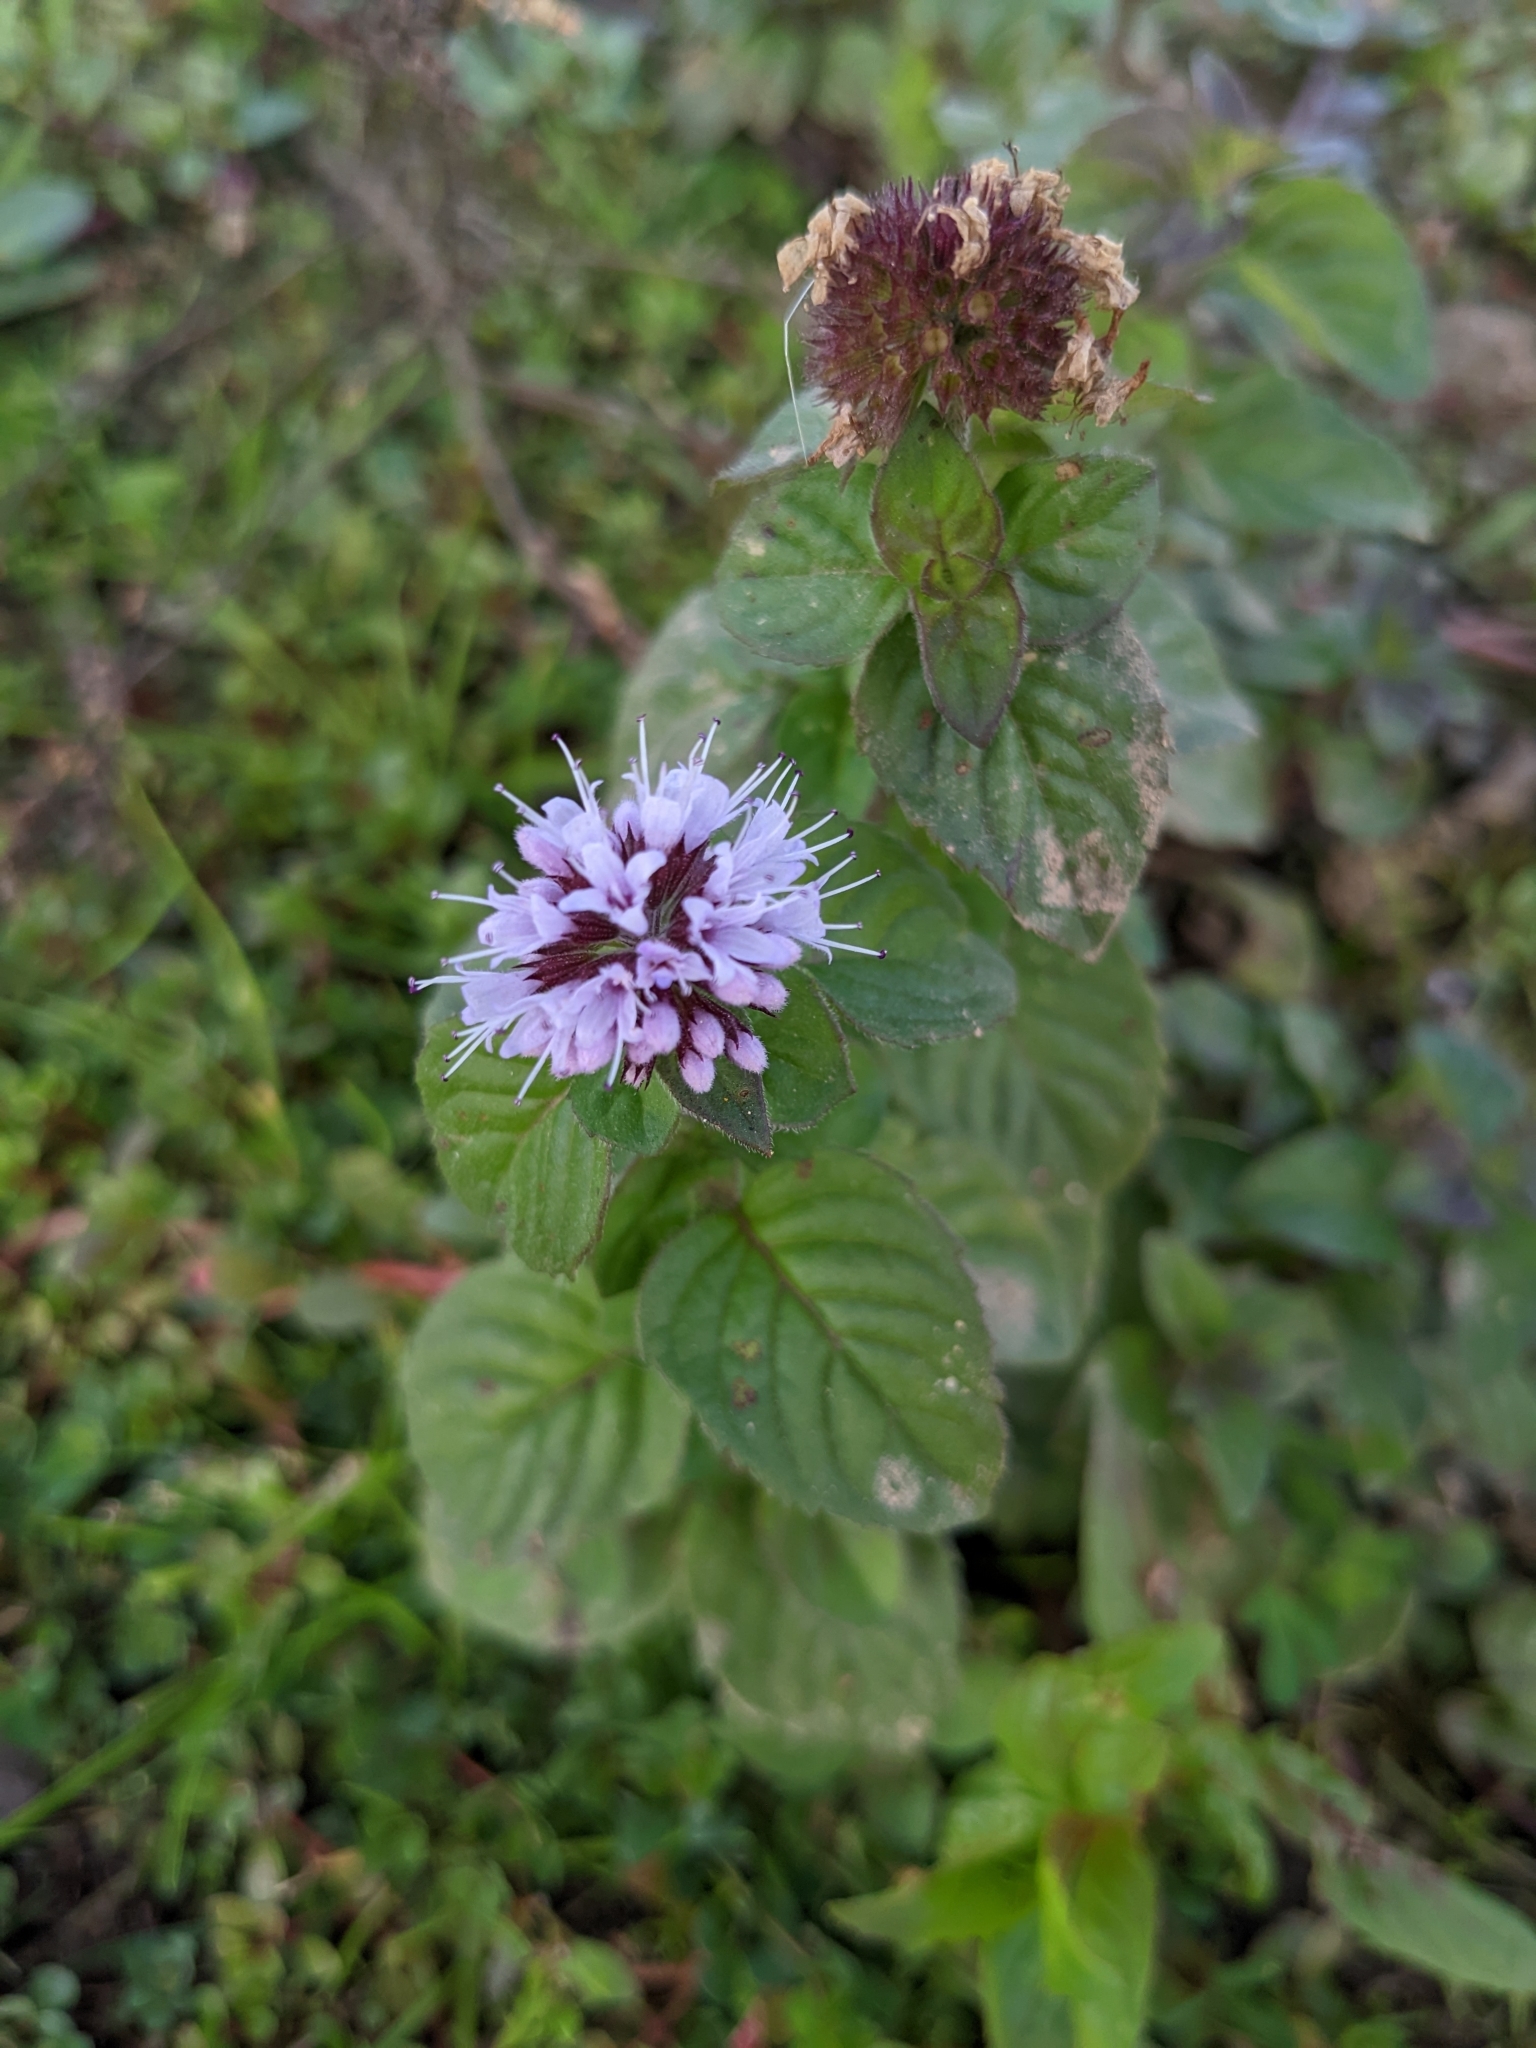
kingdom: Plantae
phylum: Tracheophyta
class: Magnoliopsida
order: Lamiales
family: Lamiaceae
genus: Mentha
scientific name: Mentha aquatica
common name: Water mint
